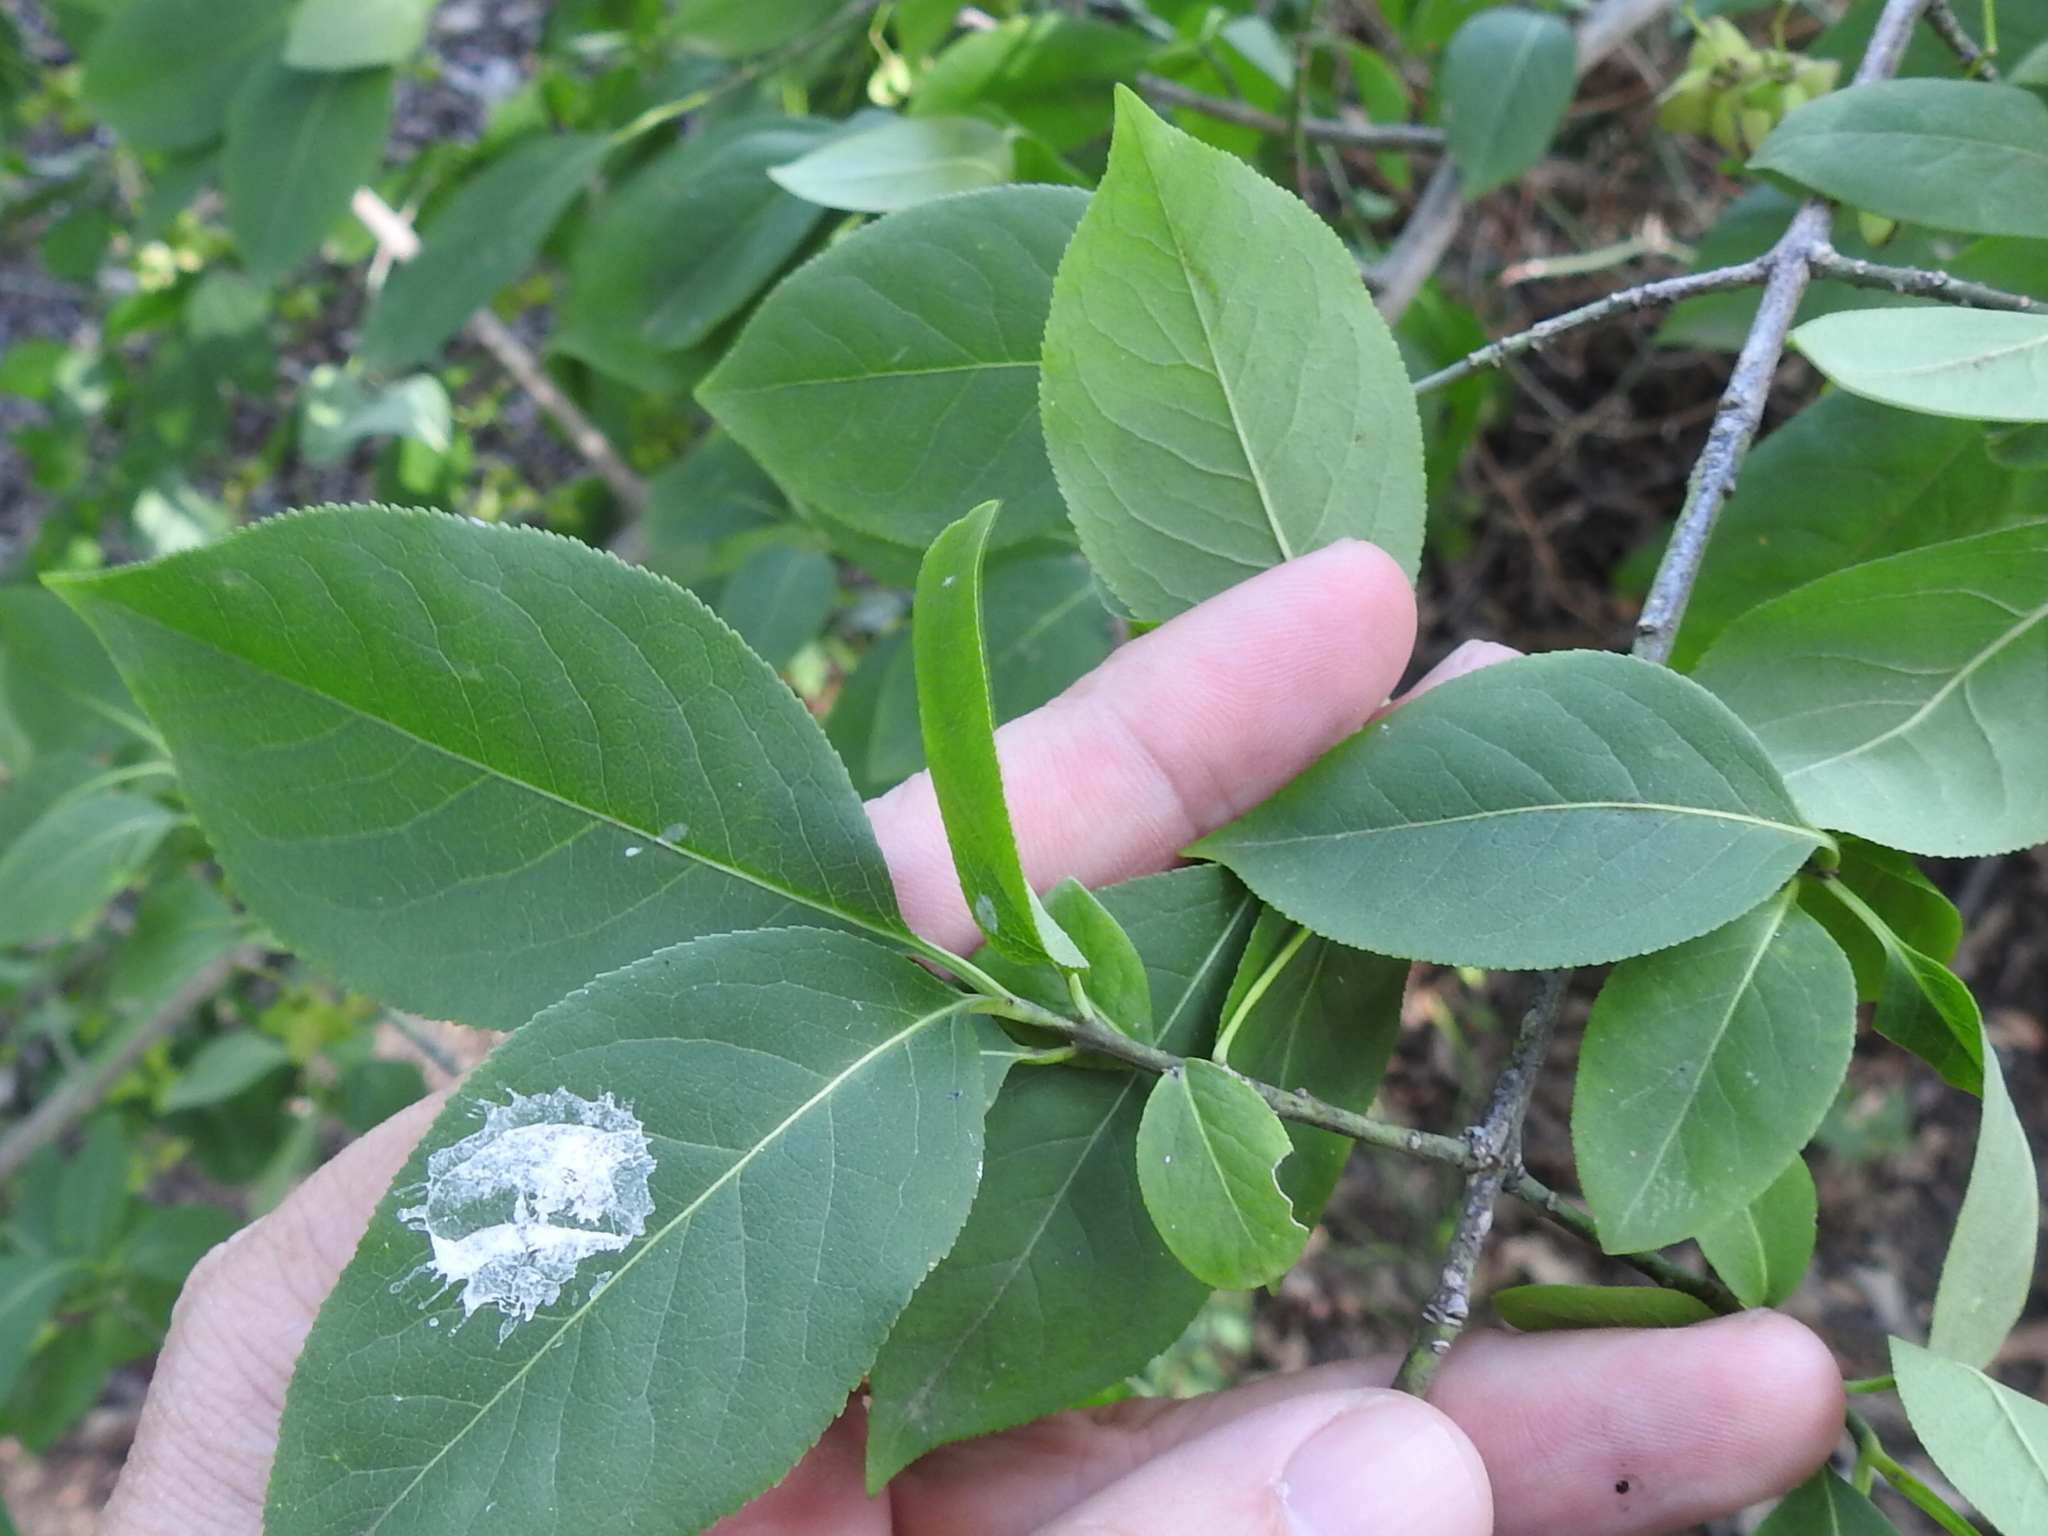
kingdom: Plantae
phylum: Tracheophyta
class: Magnoliopsida
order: Celastrales
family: Celastraceae
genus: Euonymus
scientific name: Euonymus atropurpureus
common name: Eastern wahoo
